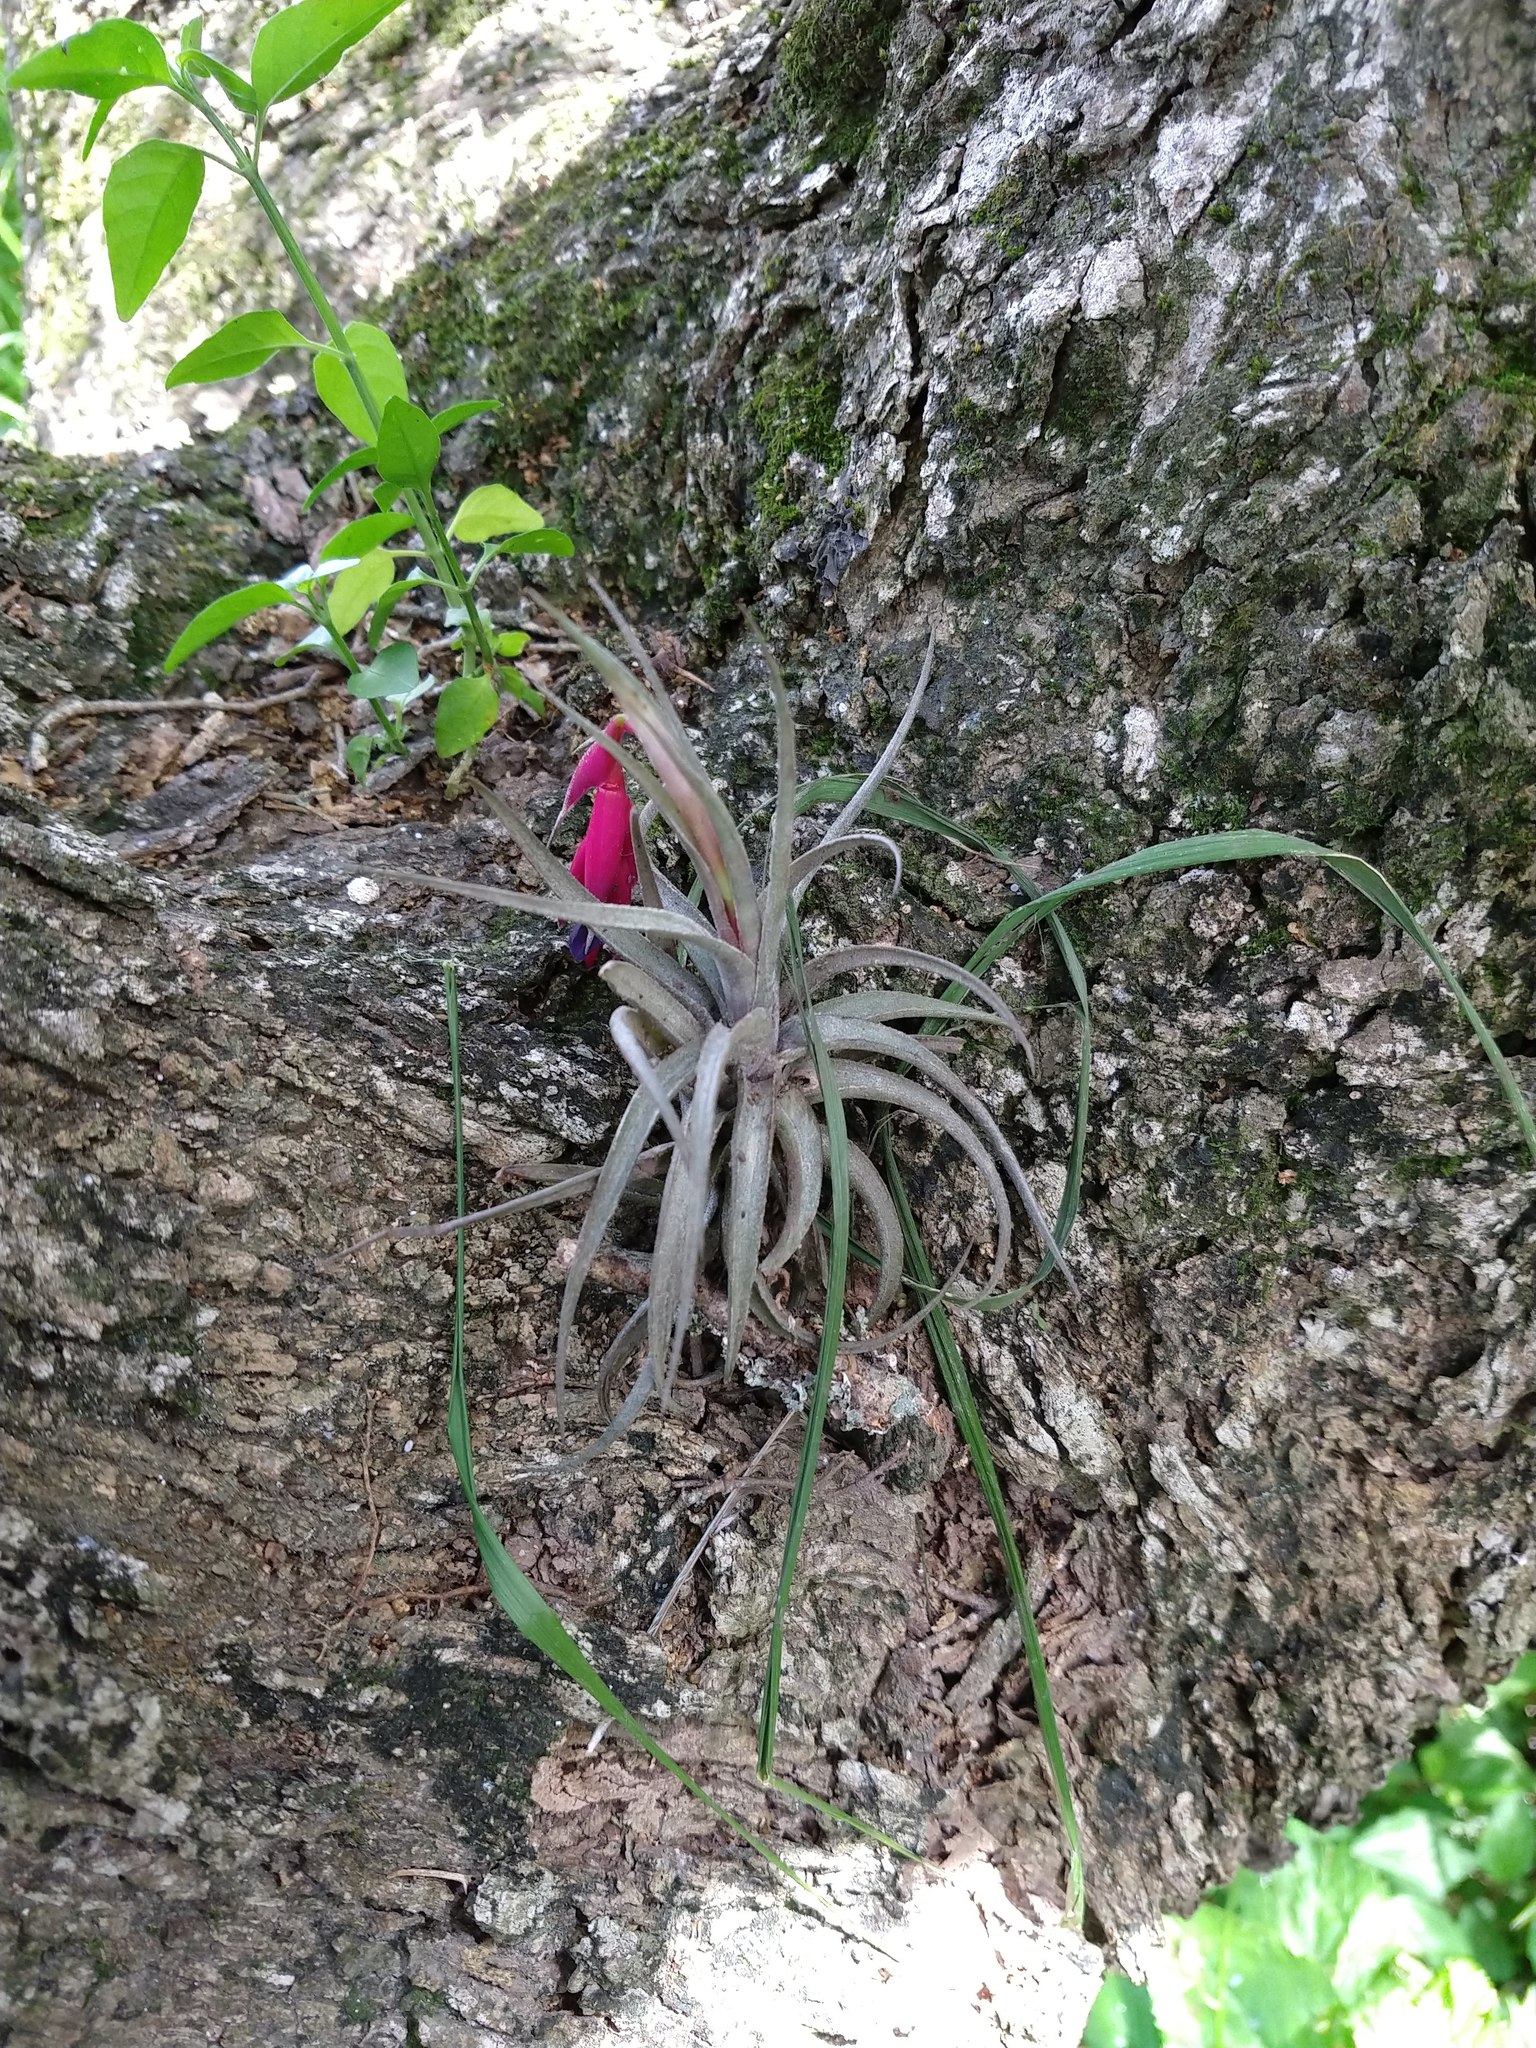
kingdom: Plantae
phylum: Tracheophyta
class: Liliopsida
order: Poales
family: Bromeliaceae
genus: Tillandsia
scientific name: Tillandsia aeranthos
